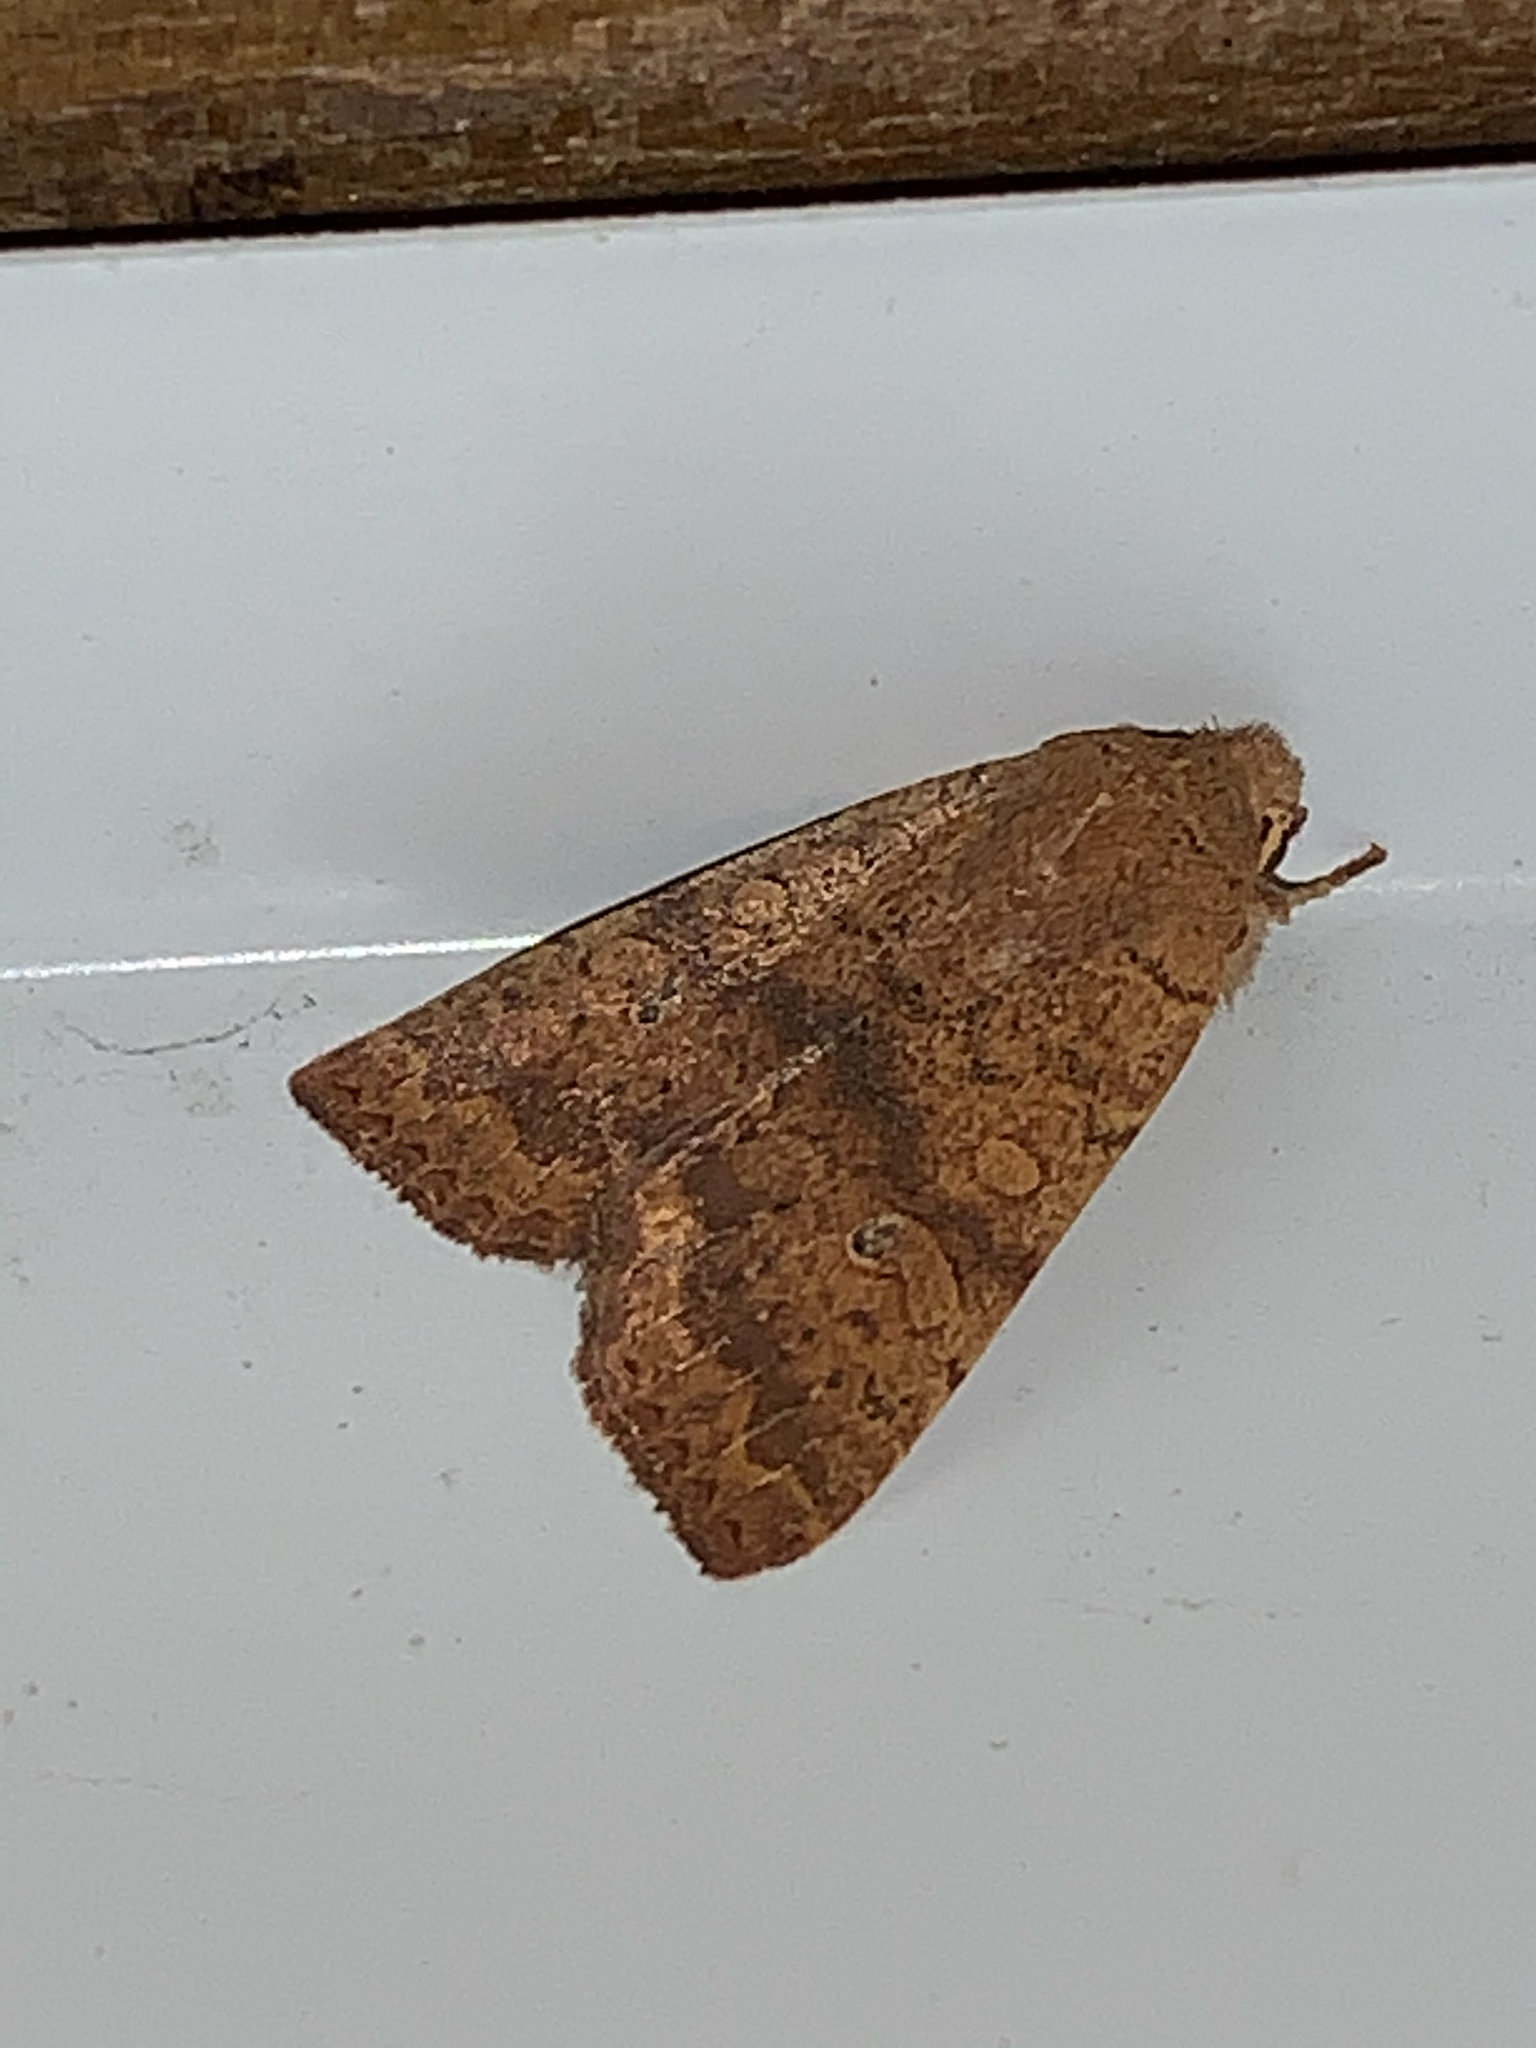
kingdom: Animalia
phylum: Arthropoda
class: Insecta
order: Lepidoptera
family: Noctuidae
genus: Agrochola
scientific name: Agrochola bicolorago
